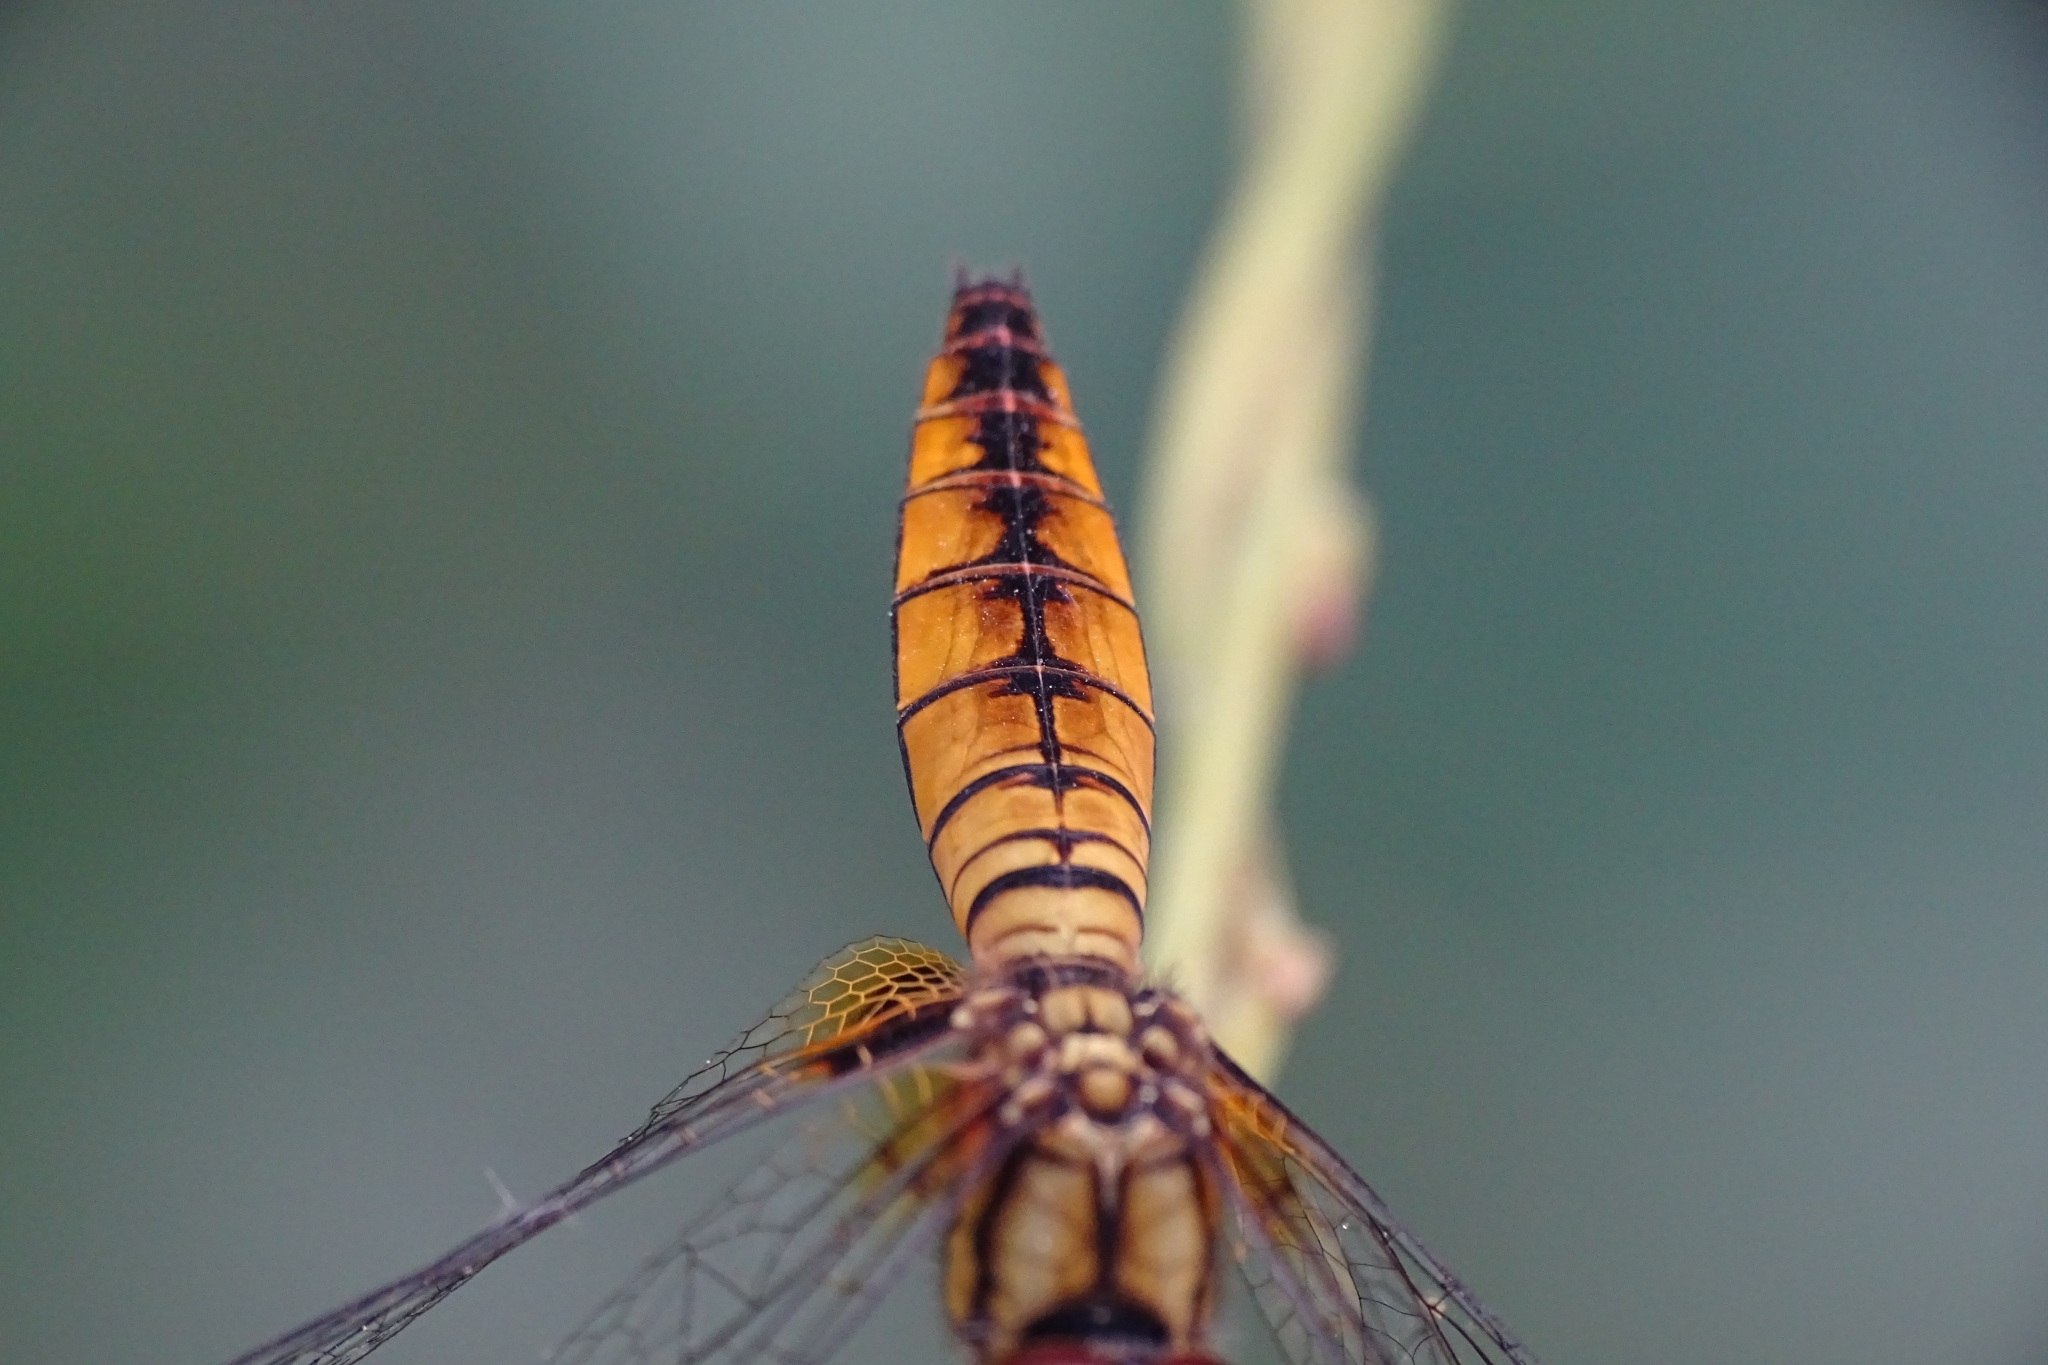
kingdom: Animalia
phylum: Arthropoda
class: Insecta
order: Odonata
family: Libellulidae
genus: Aethriamanta
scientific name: Aethriamanta brevipennis
